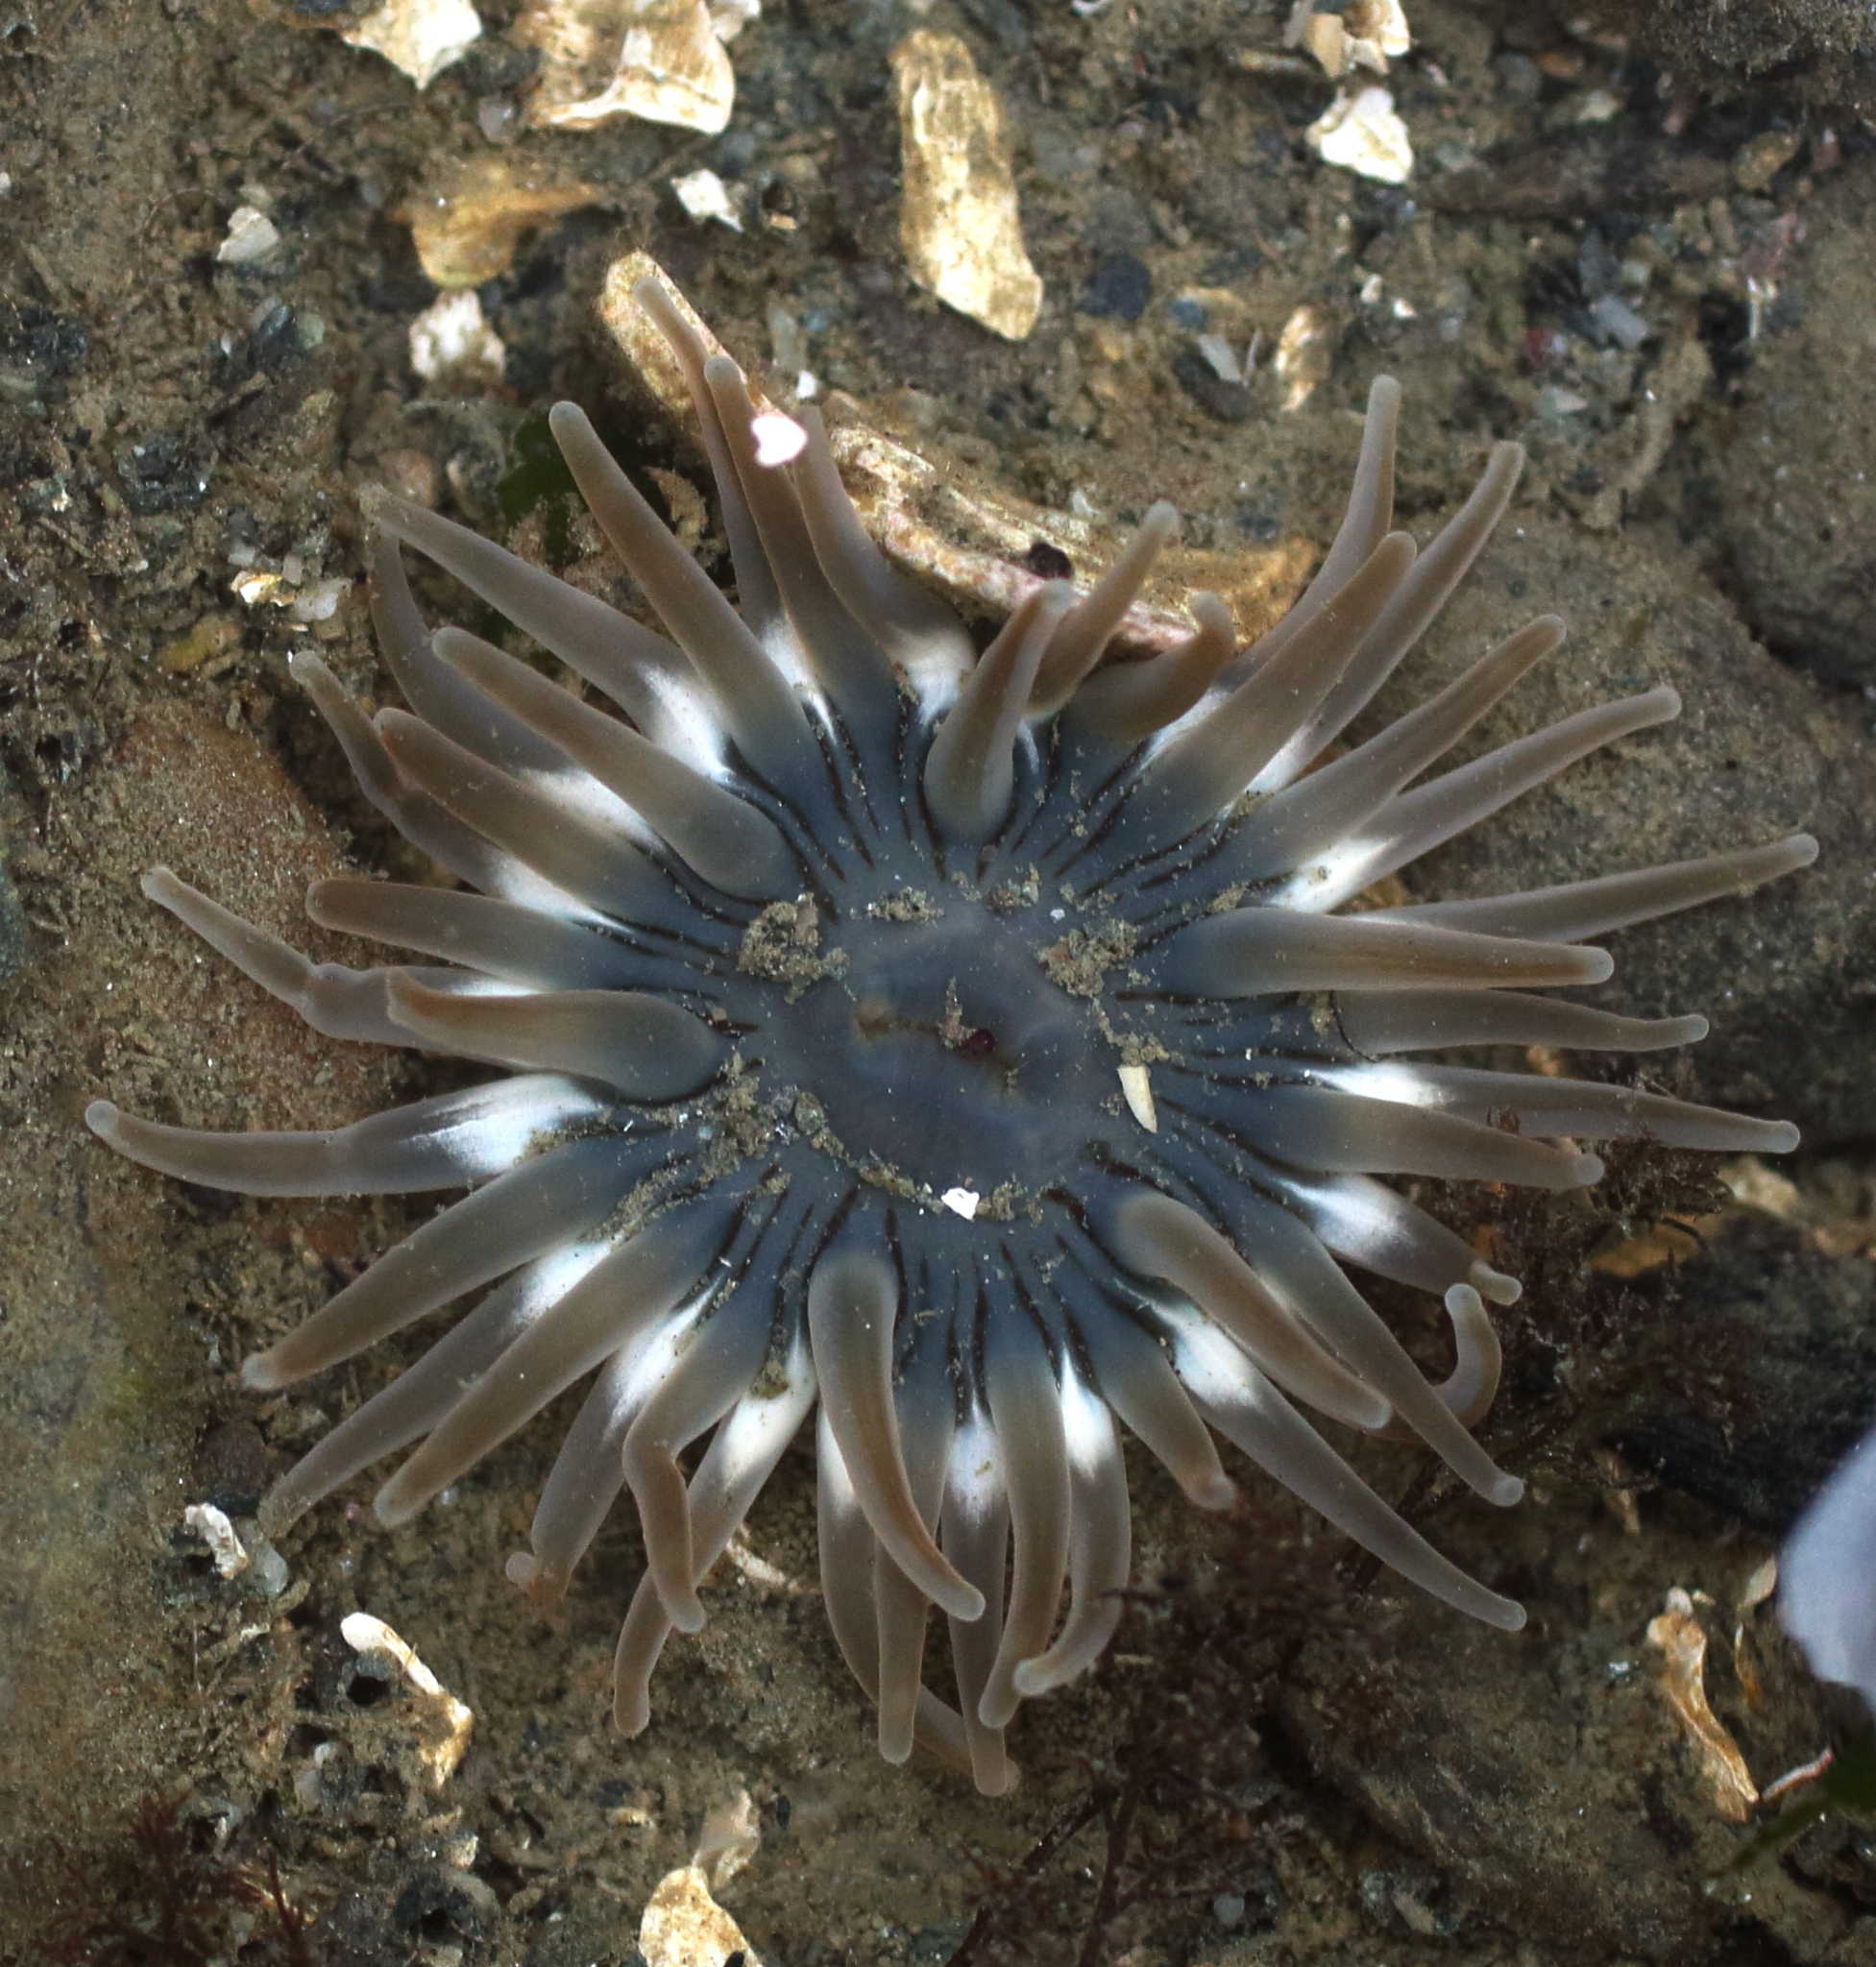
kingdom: Animalia
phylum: Cnidaria
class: Anthozoa
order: Actiniaria
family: Actiniidae
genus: Aulactinia
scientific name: Aulactinia incubans
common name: Incubating anemone
